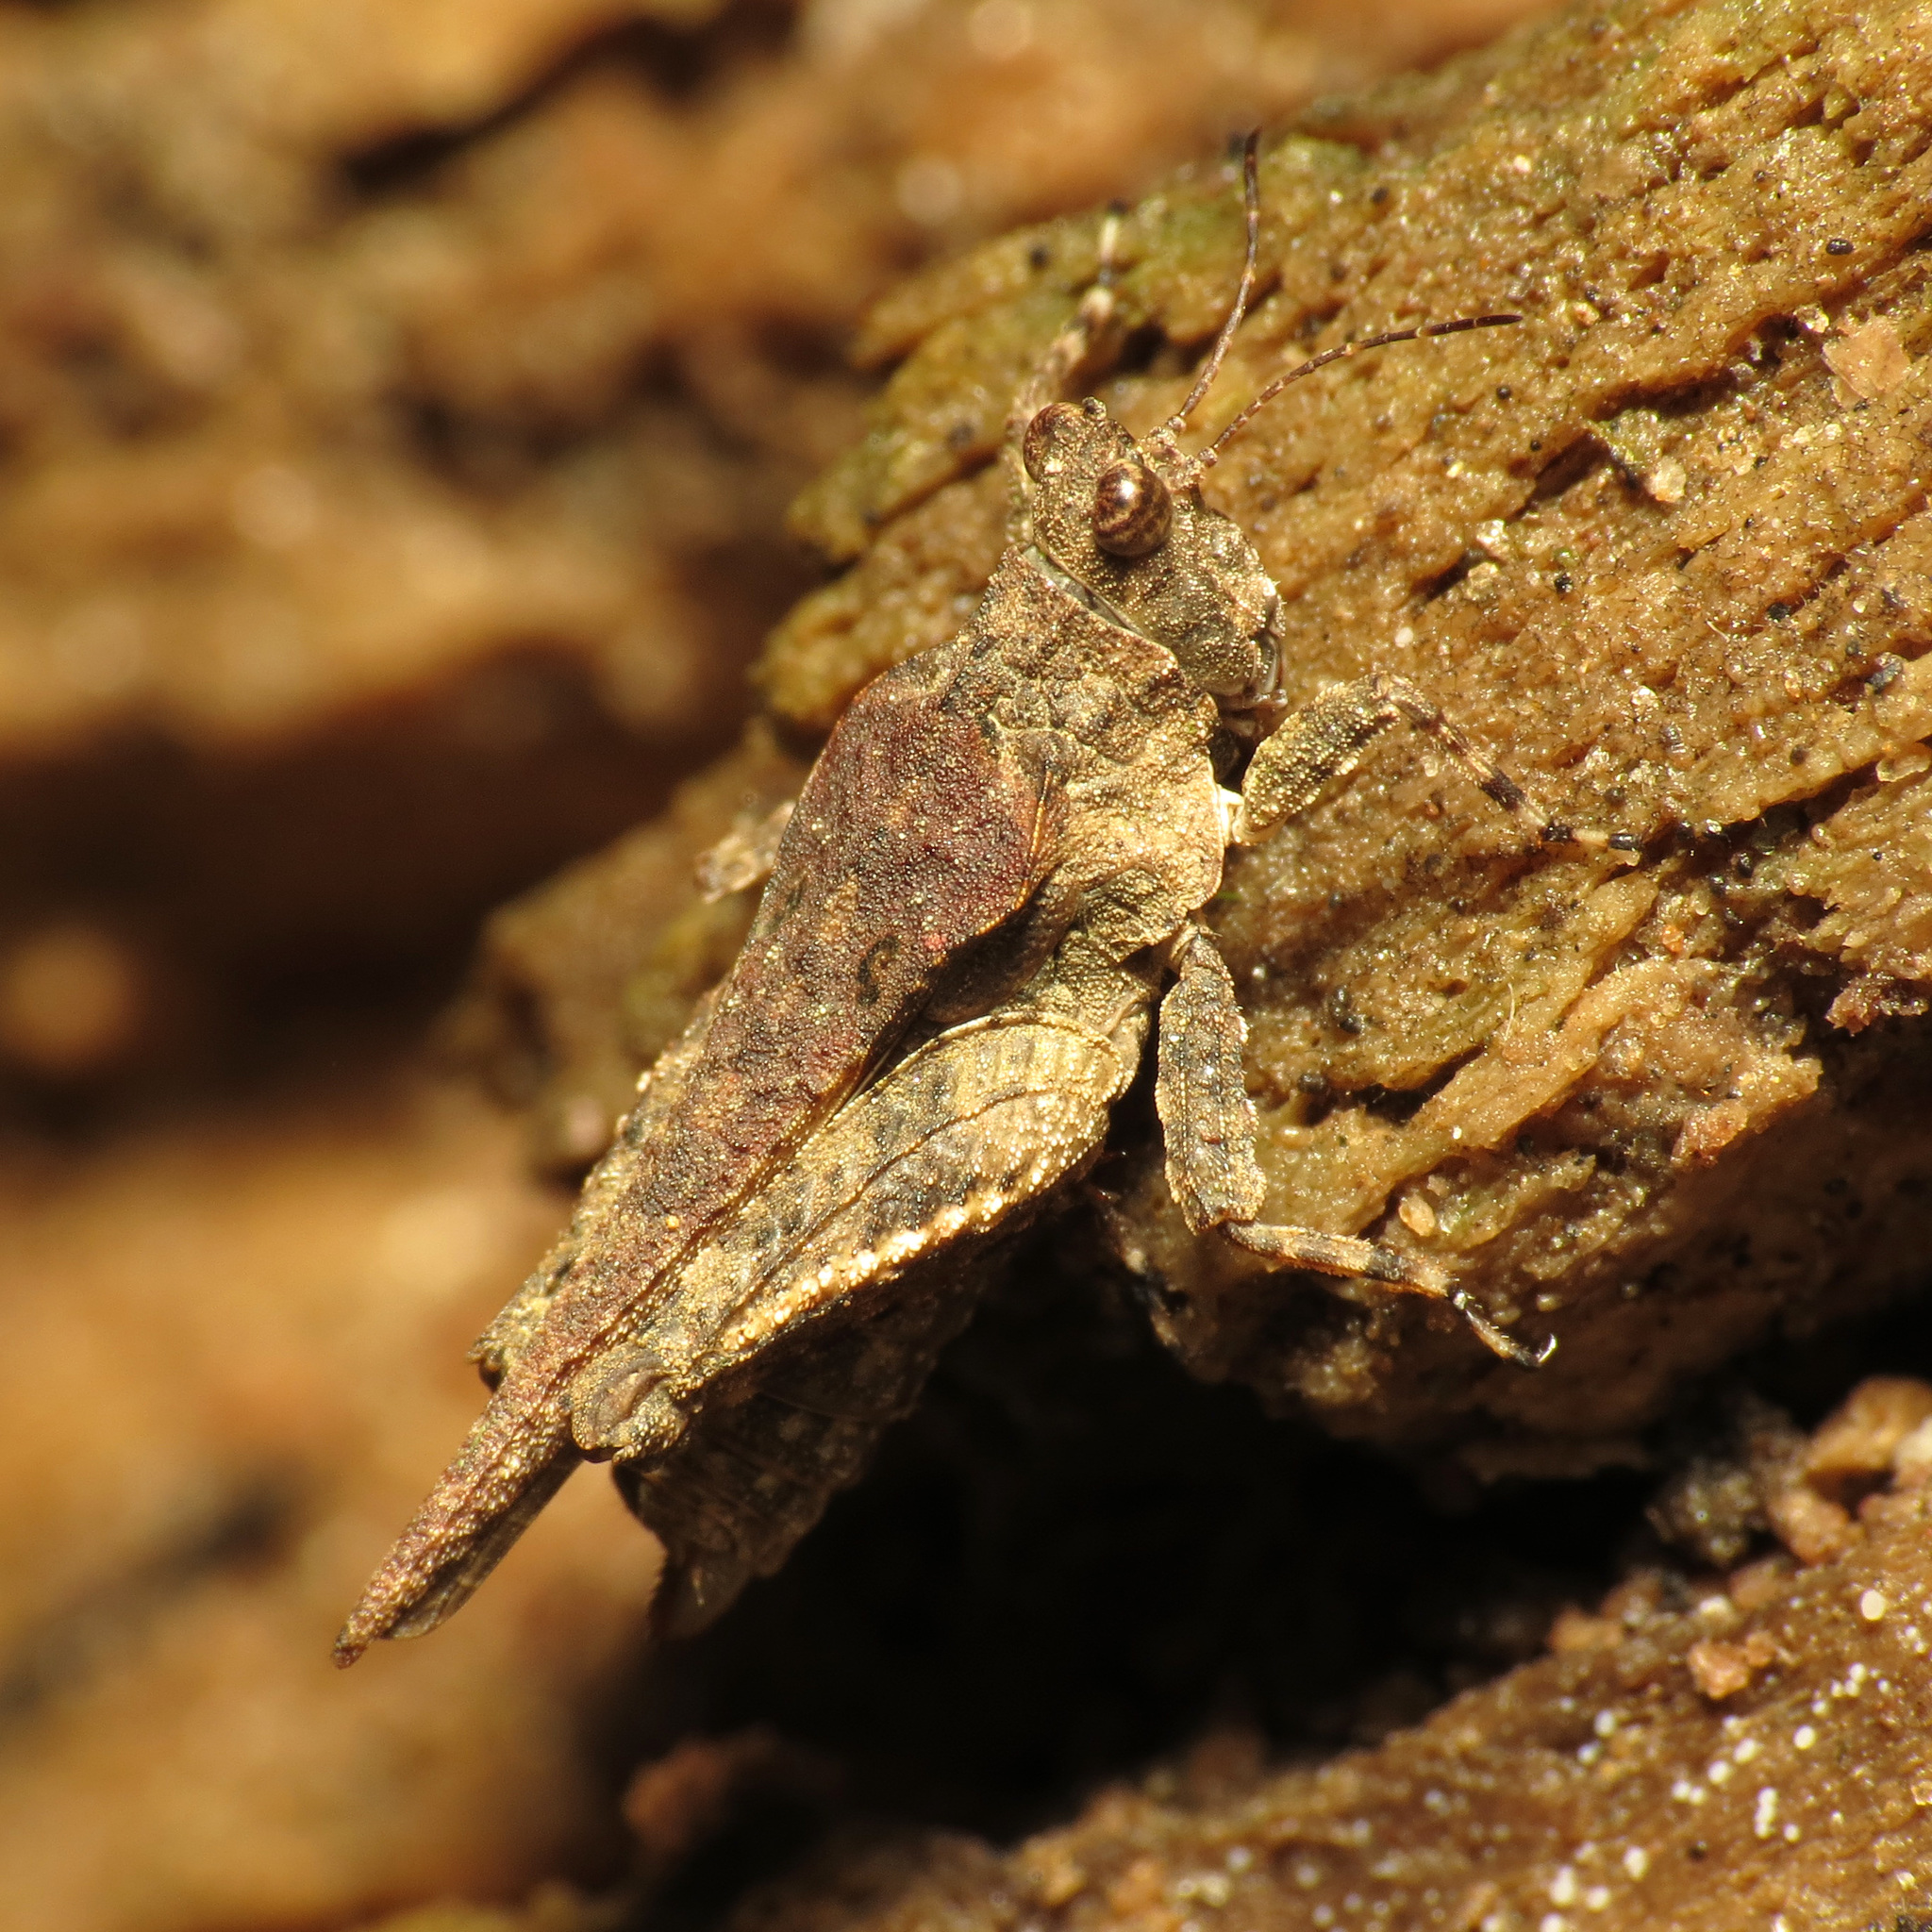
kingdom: Animalia
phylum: Arthropoda
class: Insecta
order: Orthoptera
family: Tetrigidae
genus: Tetrix
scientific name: Tetrix arenosa
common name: Ornate pygmy grasshopper
